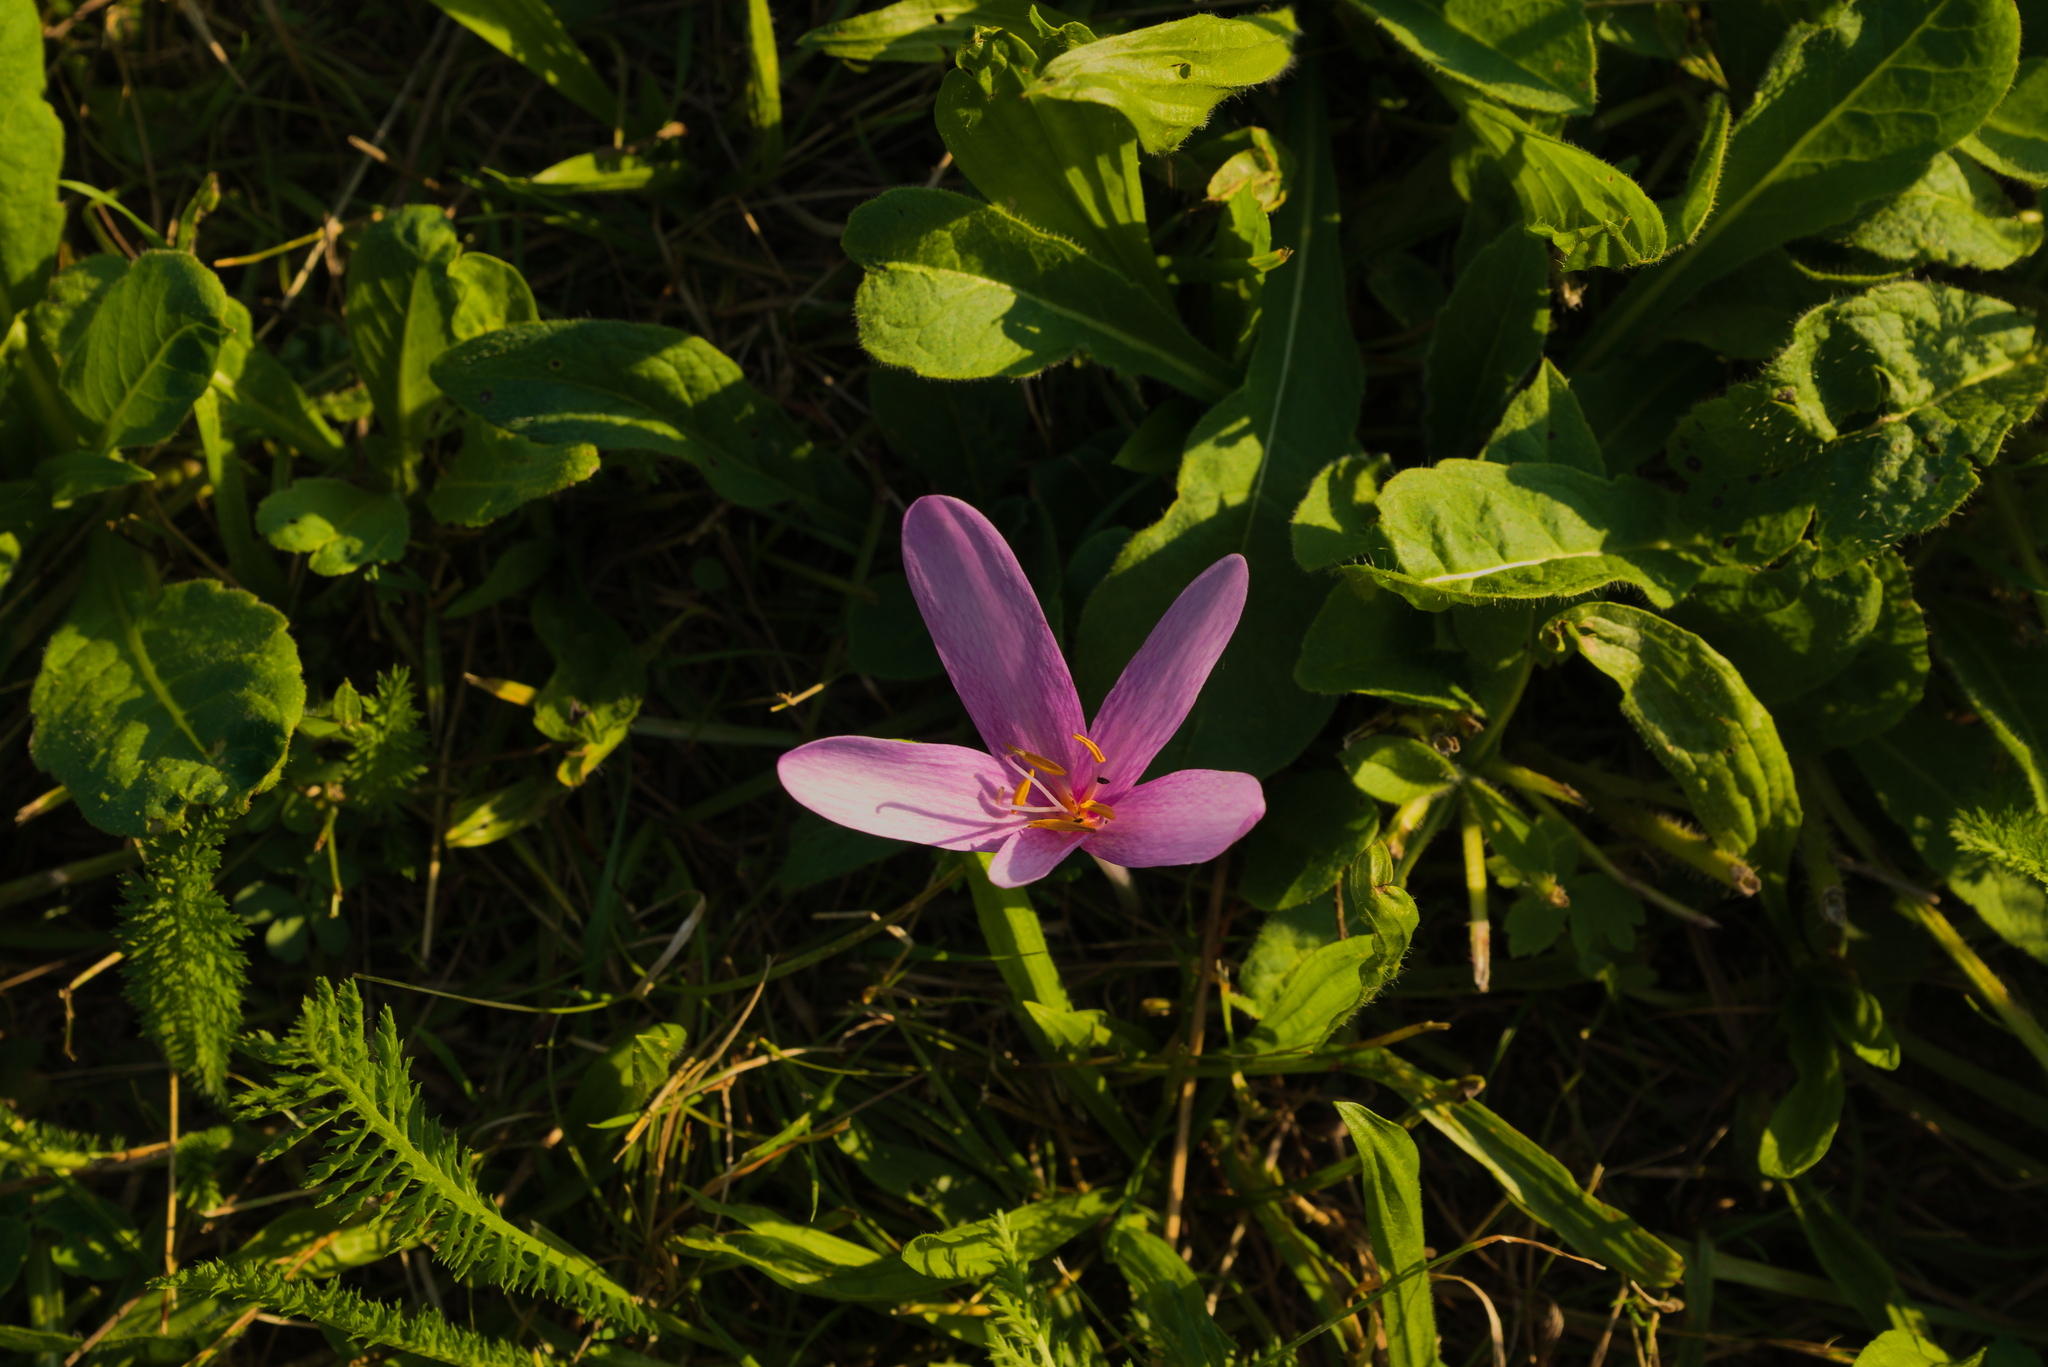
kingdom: Plantae
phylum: Tracheophyta
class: Liliopsida
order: Liliales
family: Colchicaceae
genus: Colchicum
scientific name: Colchicum autumnale
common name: Autumn crocus
